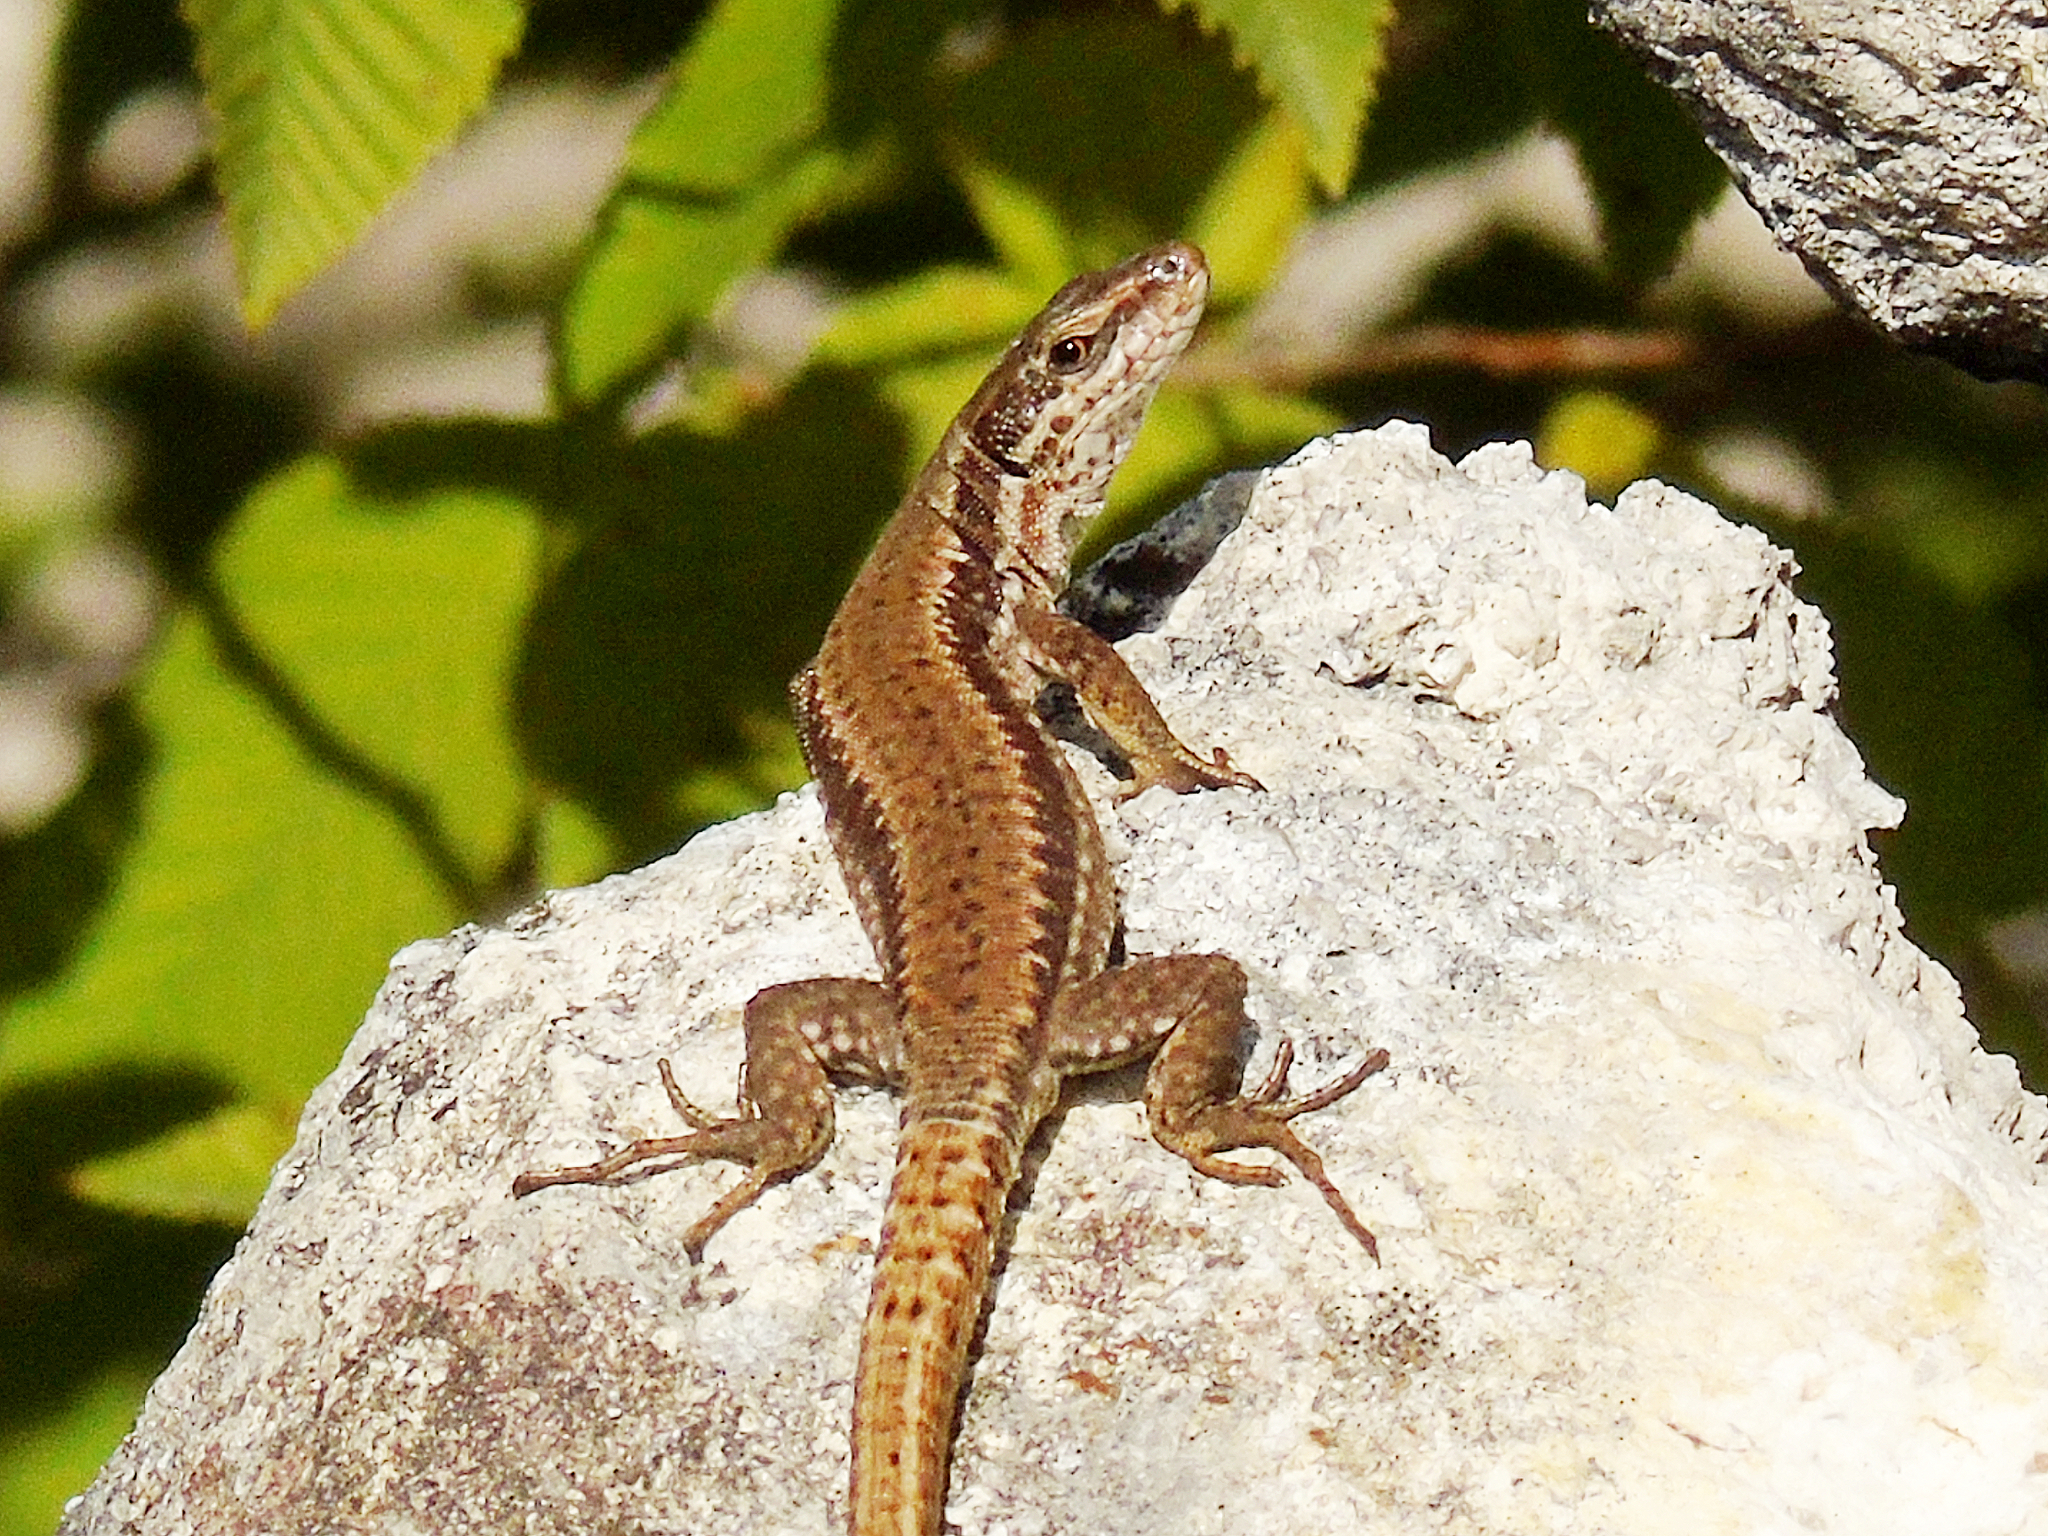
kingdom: Animalia
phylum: Chordata
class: Squamata
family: Lacertidae
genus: Podarcis
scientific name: Podarcis muralis
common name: Common wall lizard
